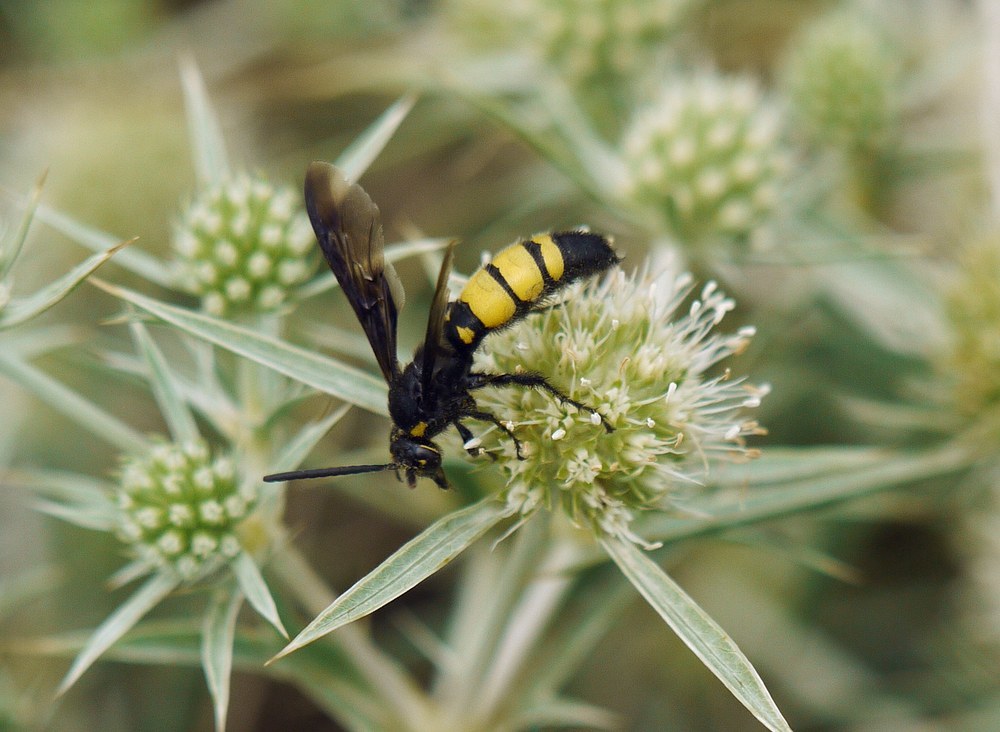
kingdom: Animalia
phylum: Arthropoda
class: Insecta
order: Hymenoptera
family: Vespidae
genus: Vespa
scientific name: Vespa galbula
